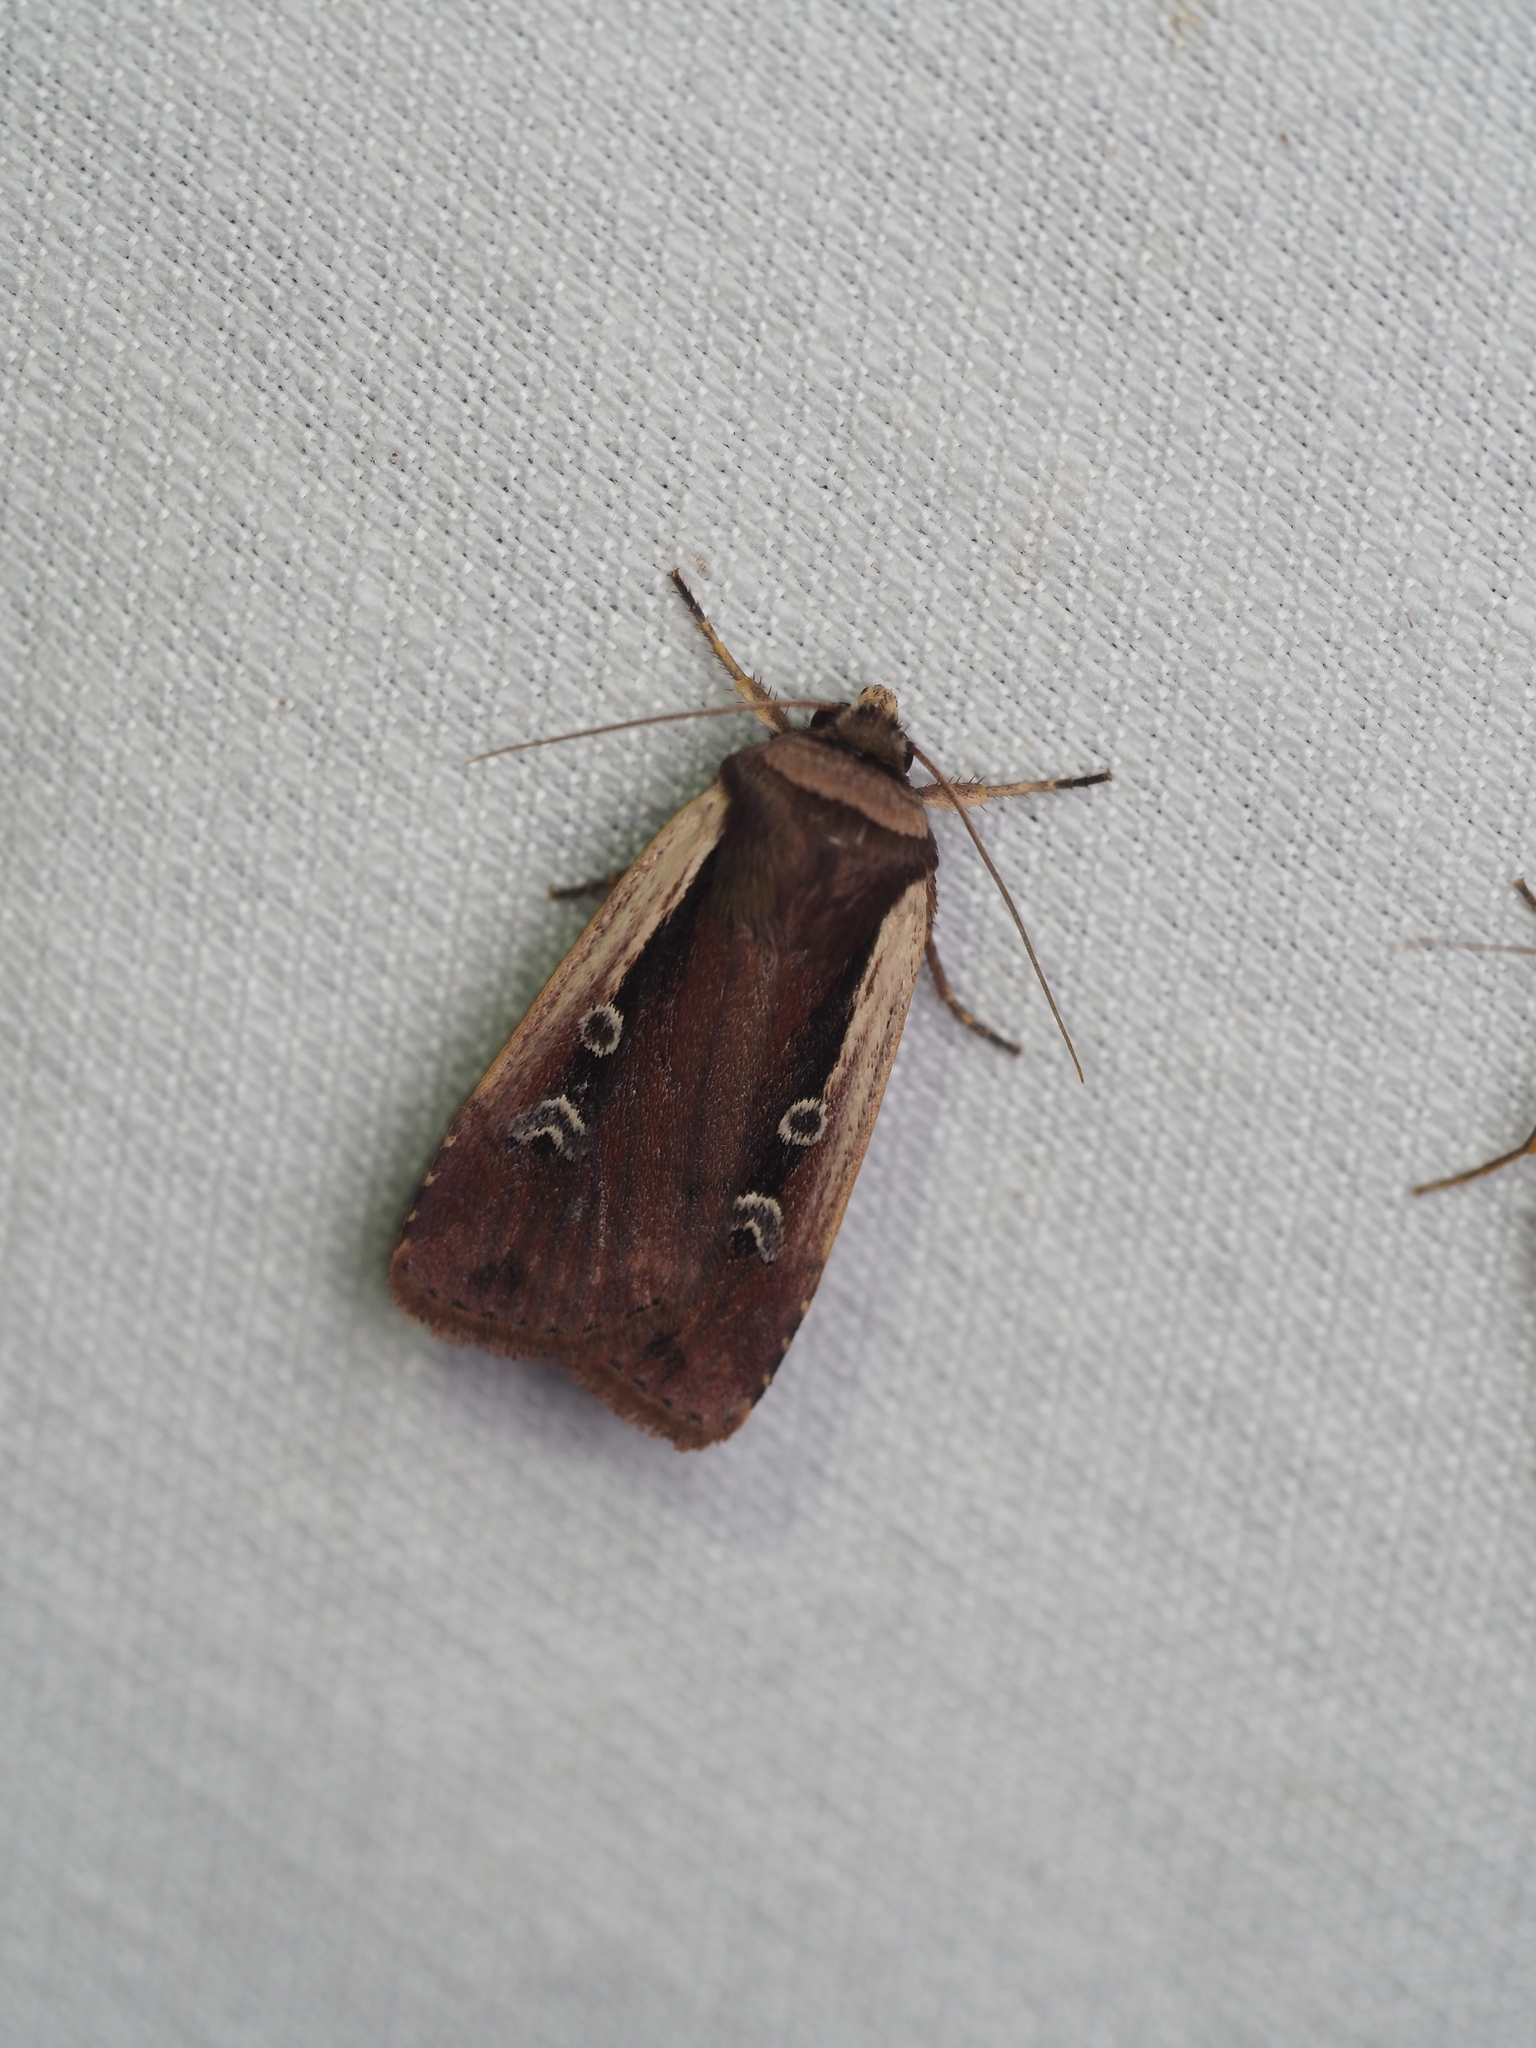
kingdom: Animalia
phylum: Arthropoda
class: Insecta
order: Lepidoptera
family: Noctuidae
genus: Ochropleura
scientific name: Ochropleura plecta
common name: Flame shoulder
